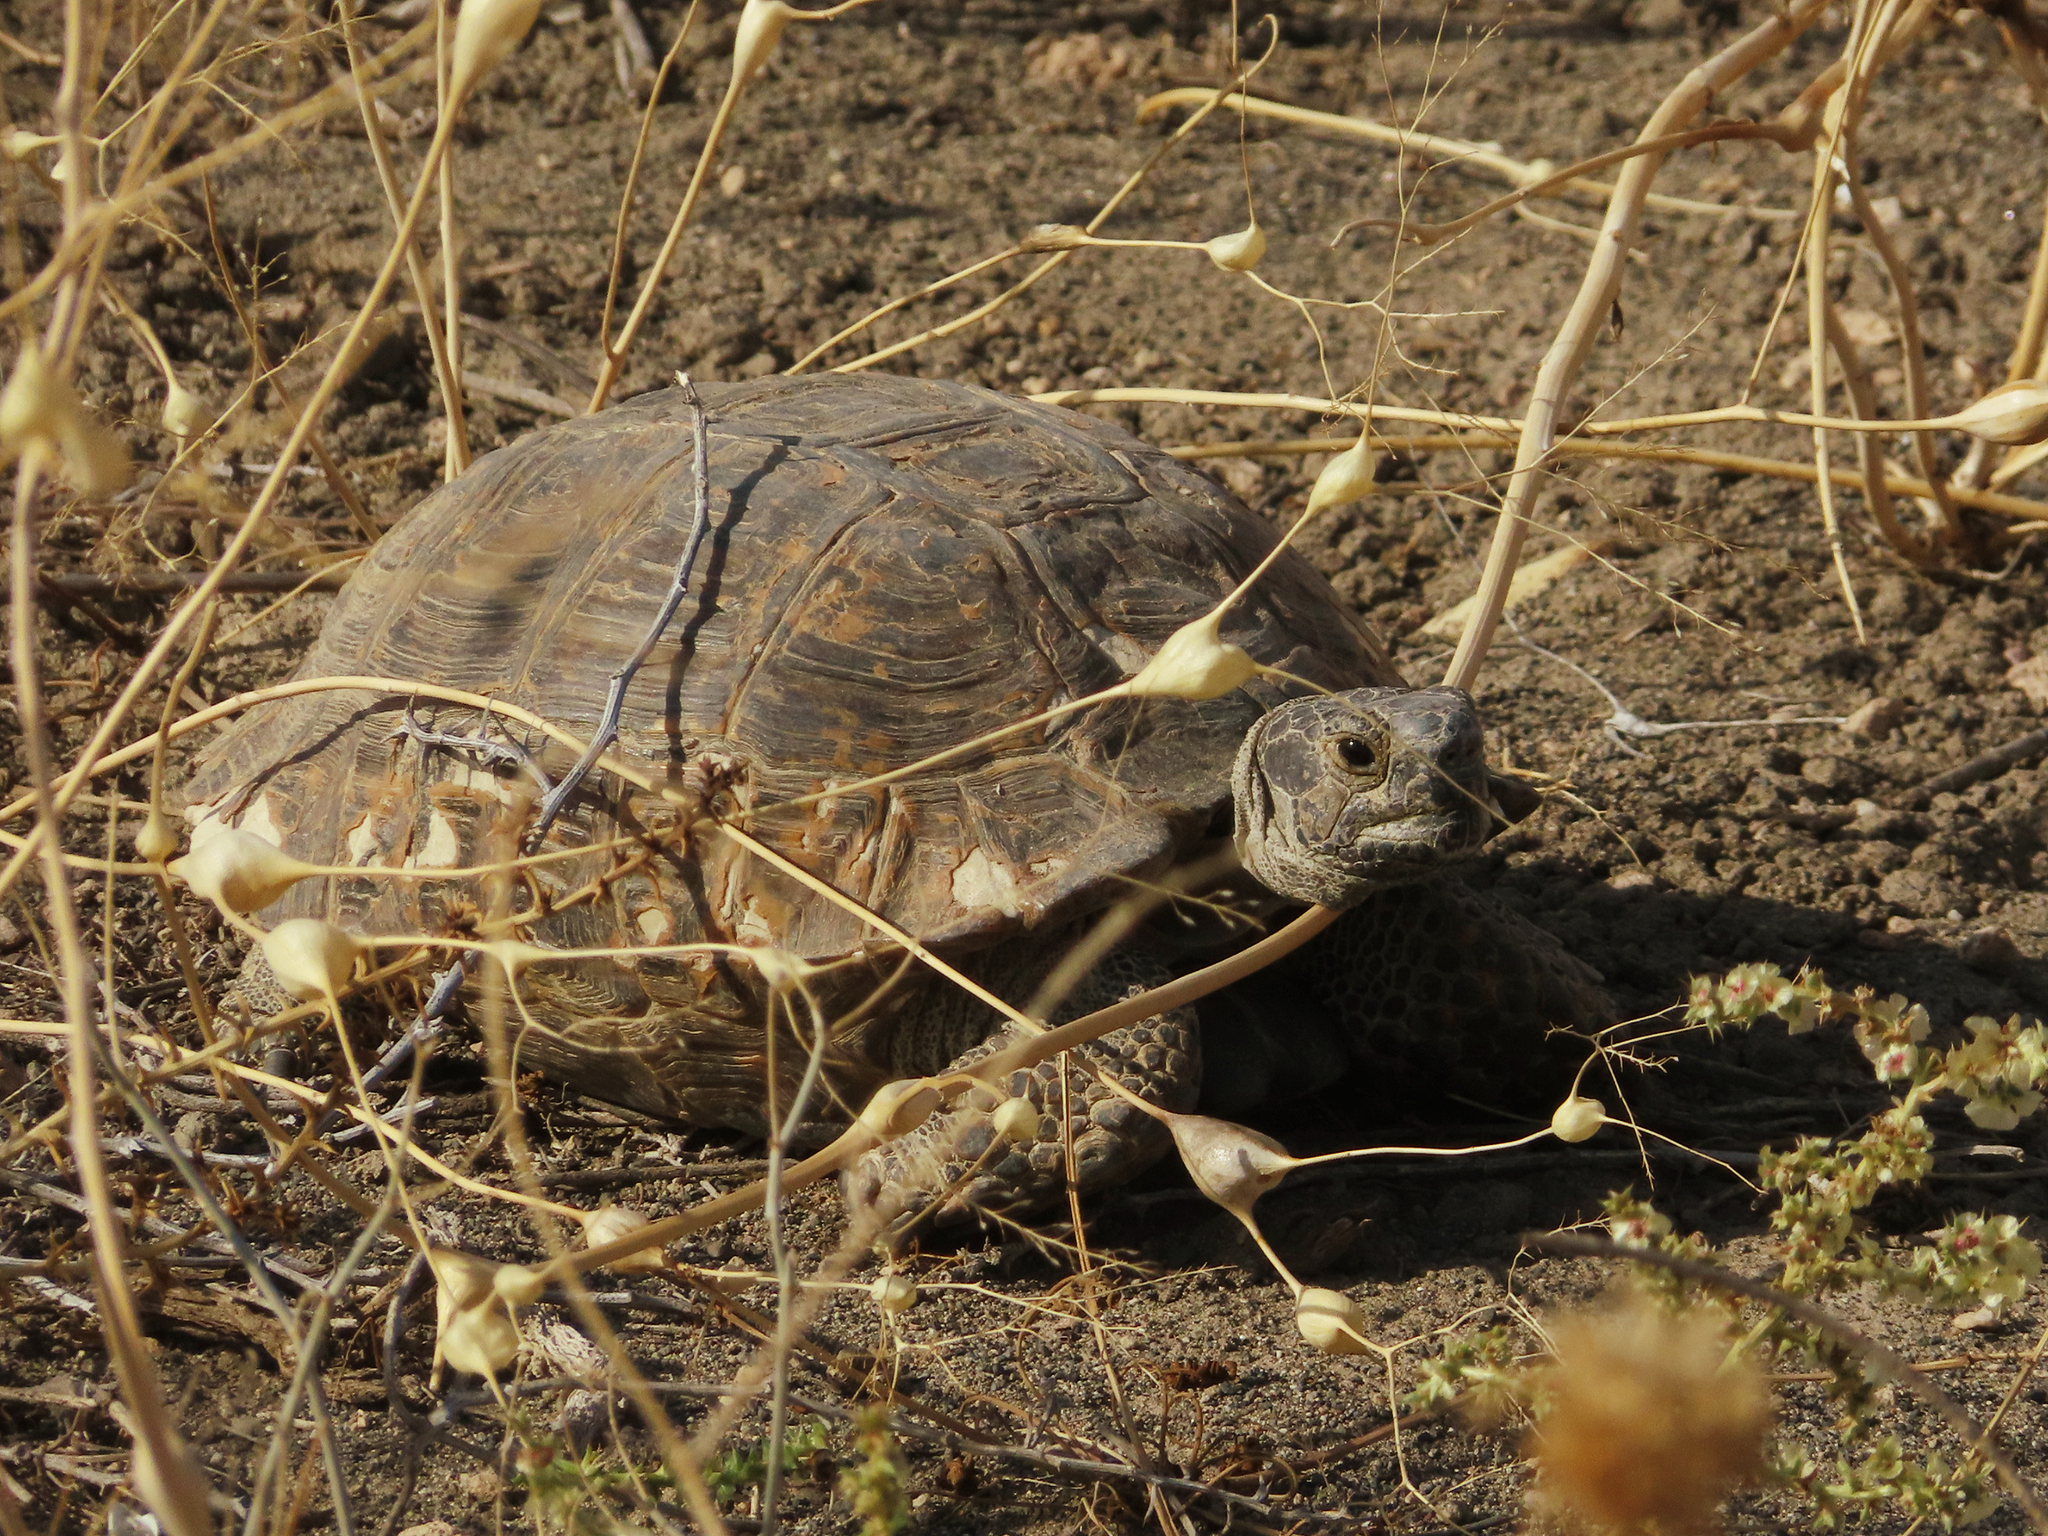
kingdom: Animalia
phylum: Chordata
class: Testudines
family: Testudinidae
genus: Testudo
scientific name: Testudo graeca
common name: Common tortoise
